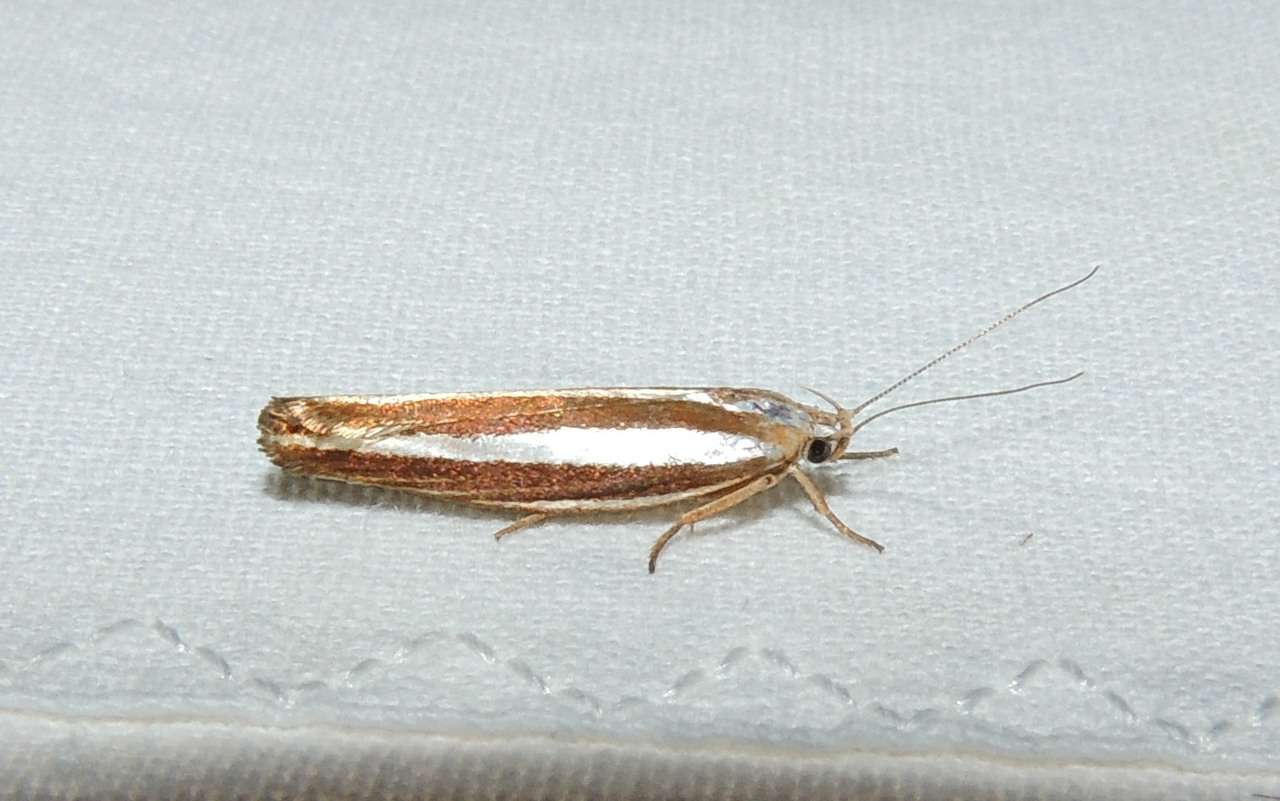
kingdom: Animalia
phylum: Arthropoda
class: Insecta
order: Lepidoptera
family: Xyloryctidae
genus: Catoryctis
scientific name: Catoryctis subparallela
